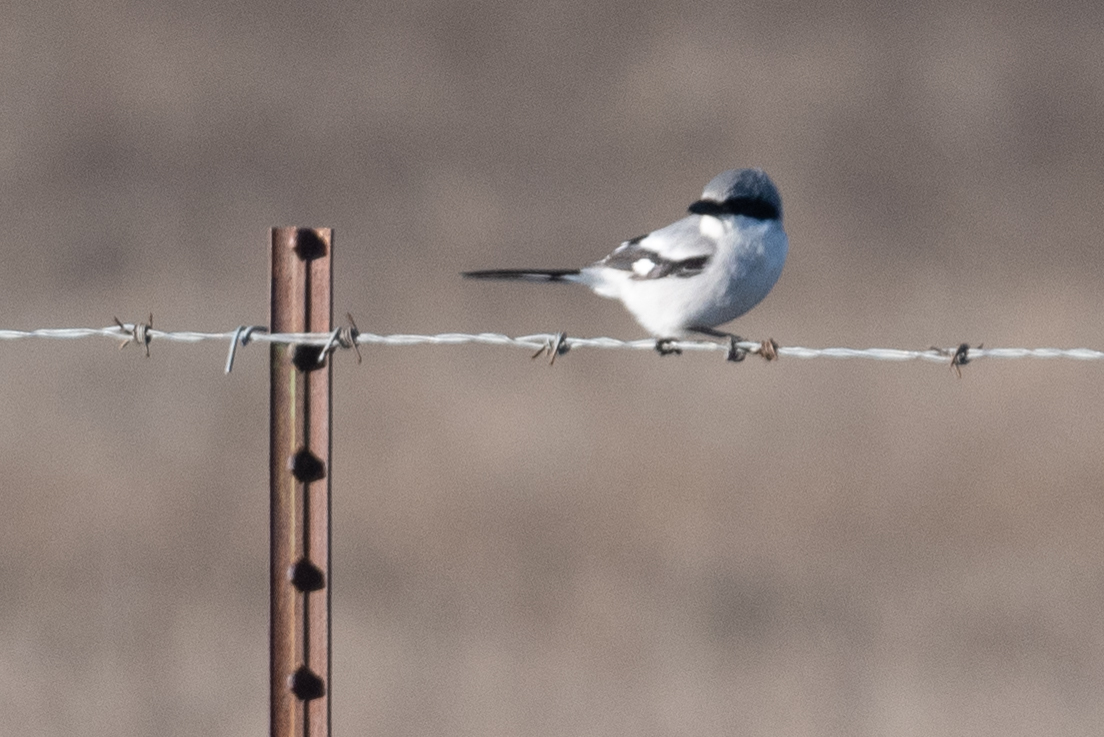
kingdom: Animalia
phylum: Chordata
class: Aves
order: Passeriformes
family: Laniidae
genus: Lanius
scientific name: Lanius ludovicianus
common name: Loggerhead shrike
